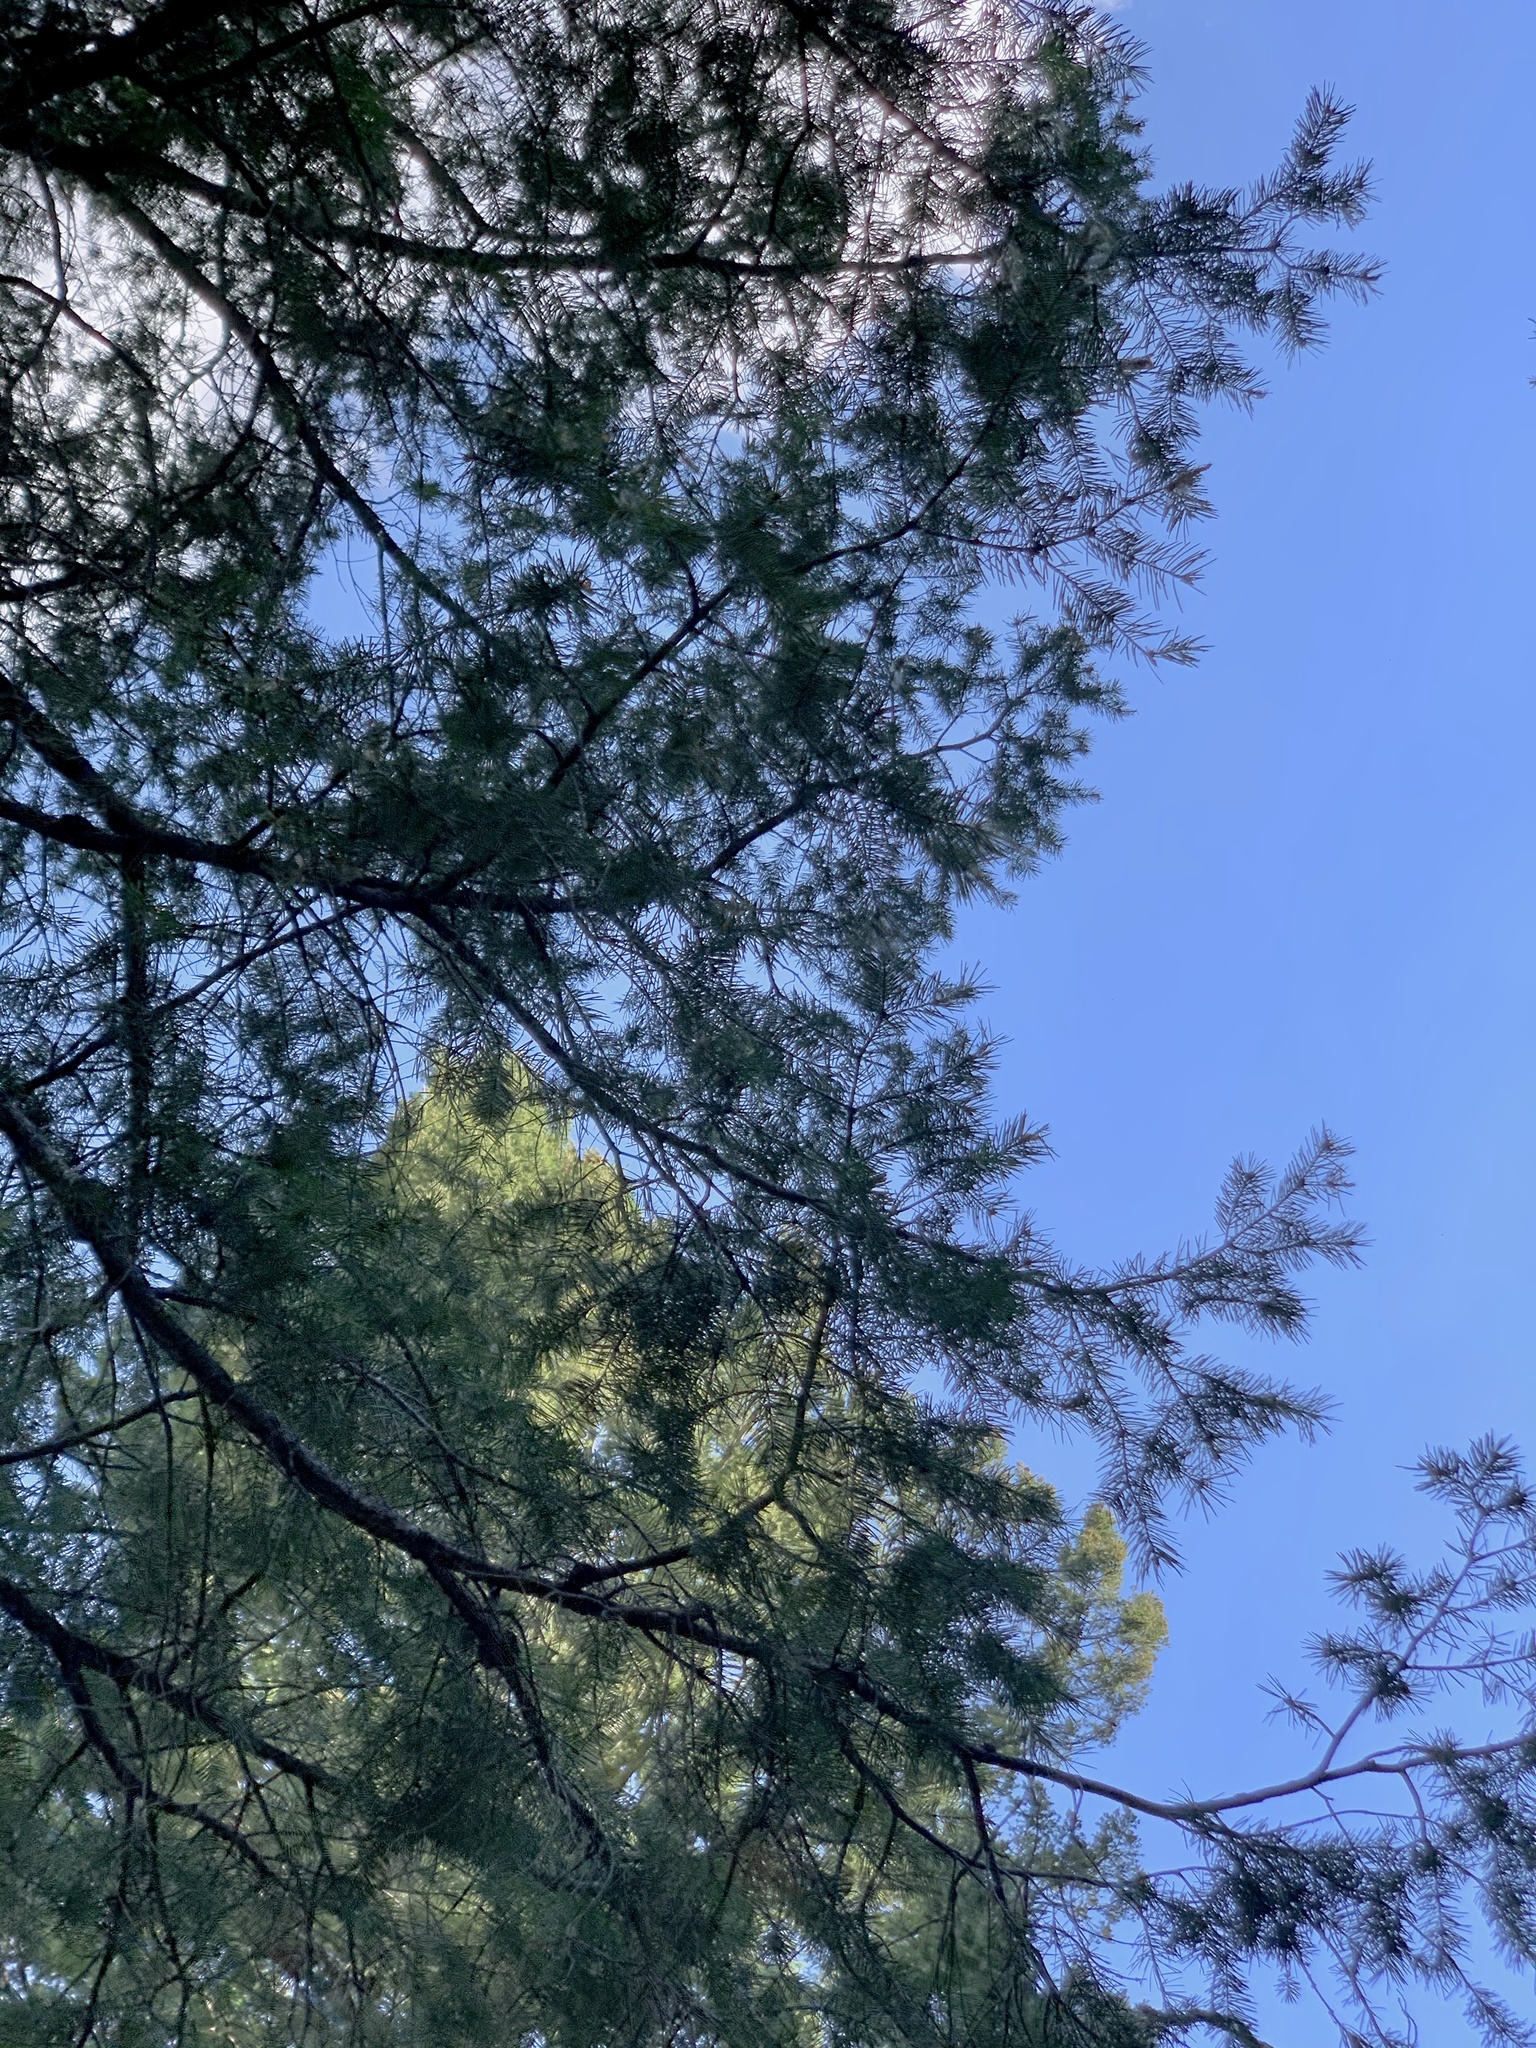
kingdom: Plantae
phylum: Tracheophyta
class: Pinopsida
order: Pinales
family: Pinaceae
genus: Pseudotsuga
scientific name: Pseudotsuga menziesii
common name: Douglas fir
